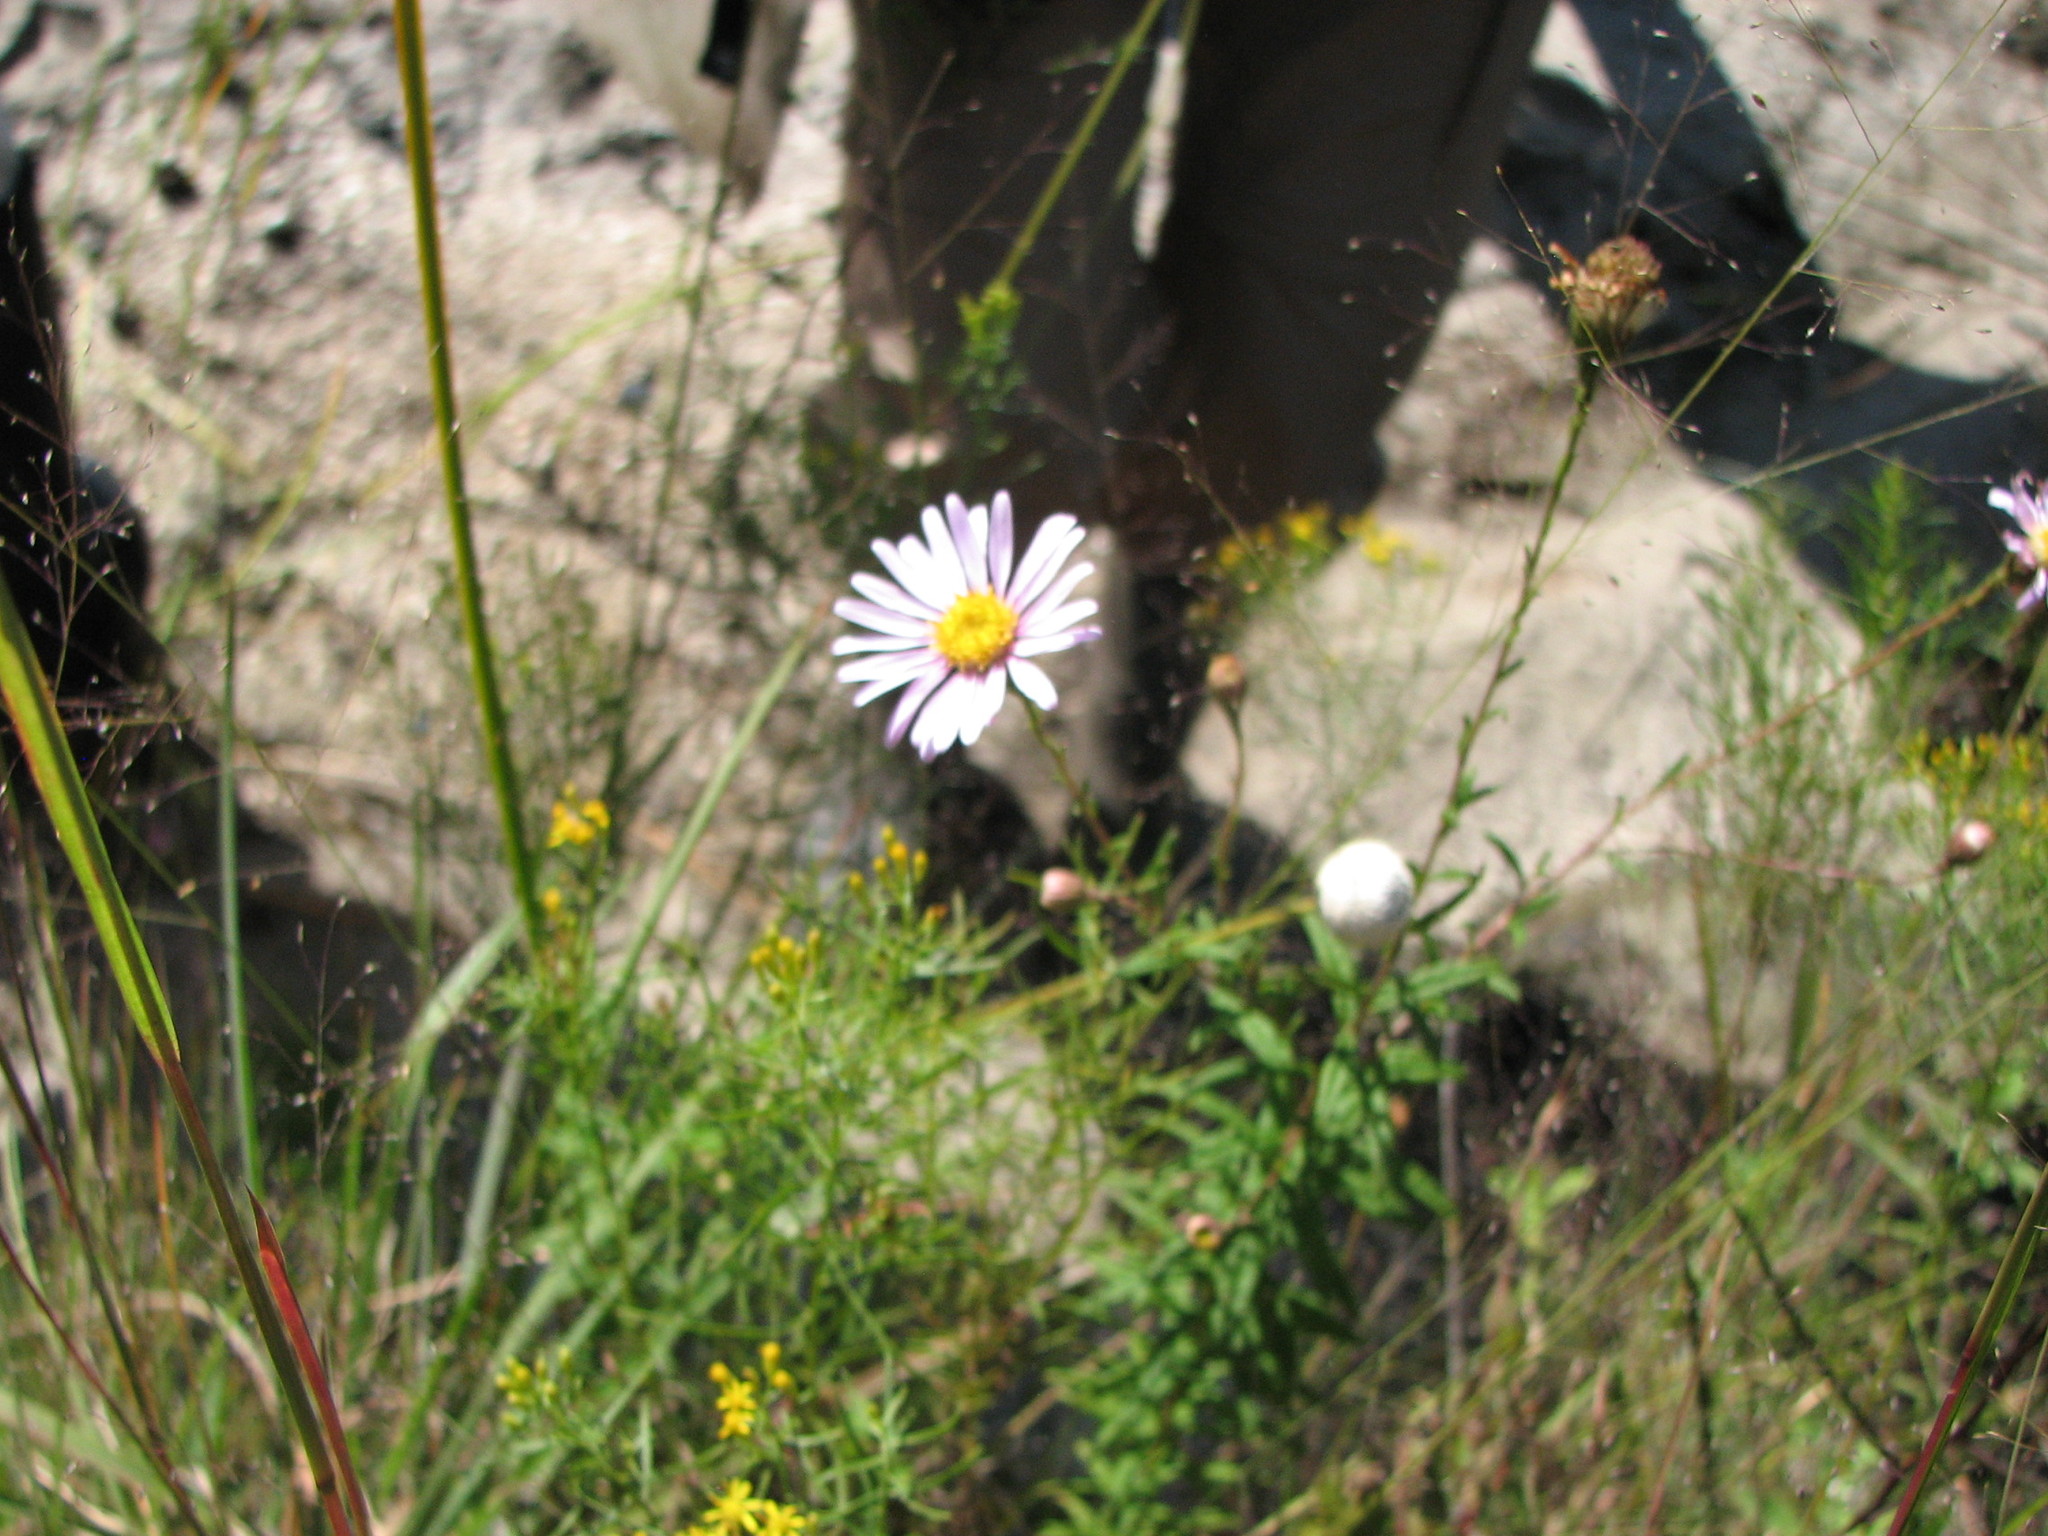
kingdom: Plantae
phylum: Tracheophyta
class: Magnoliopsida
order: Asterales
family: Asteraceae
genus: Oclemena
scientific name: Oclemena nemoralis
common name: Bog aster
